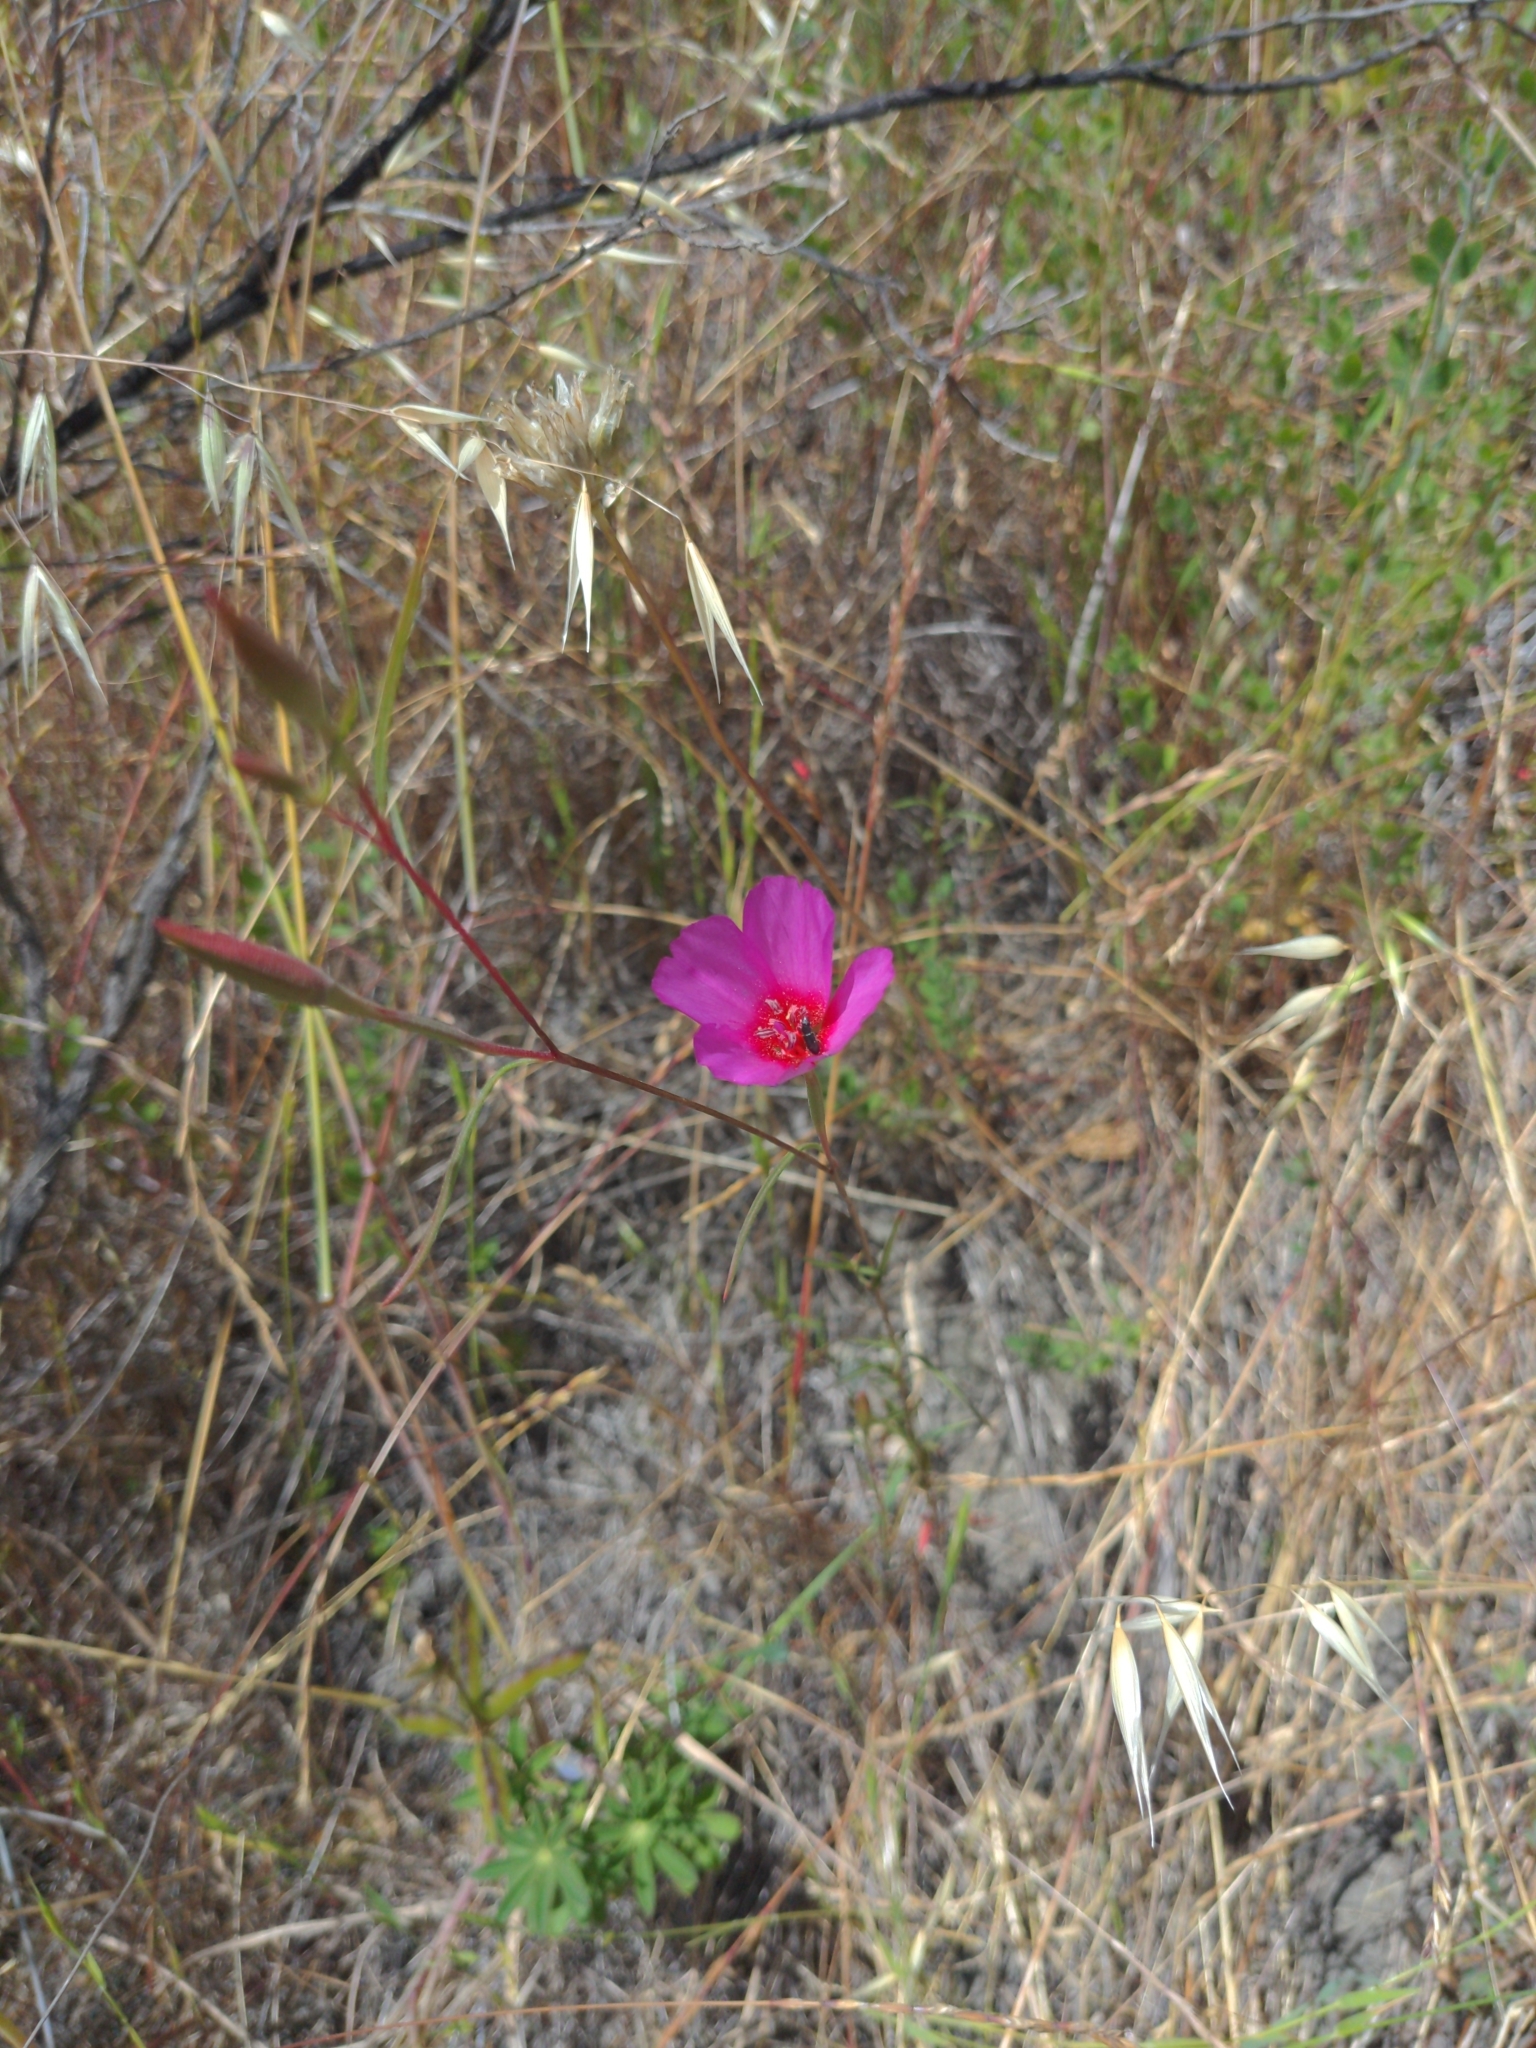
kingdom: Plantae
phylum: Tracheophyta
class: Magnoliopsida
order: Myrtales
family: Onagraceae
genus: Clarkia
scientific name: Clarkia rubicunda
